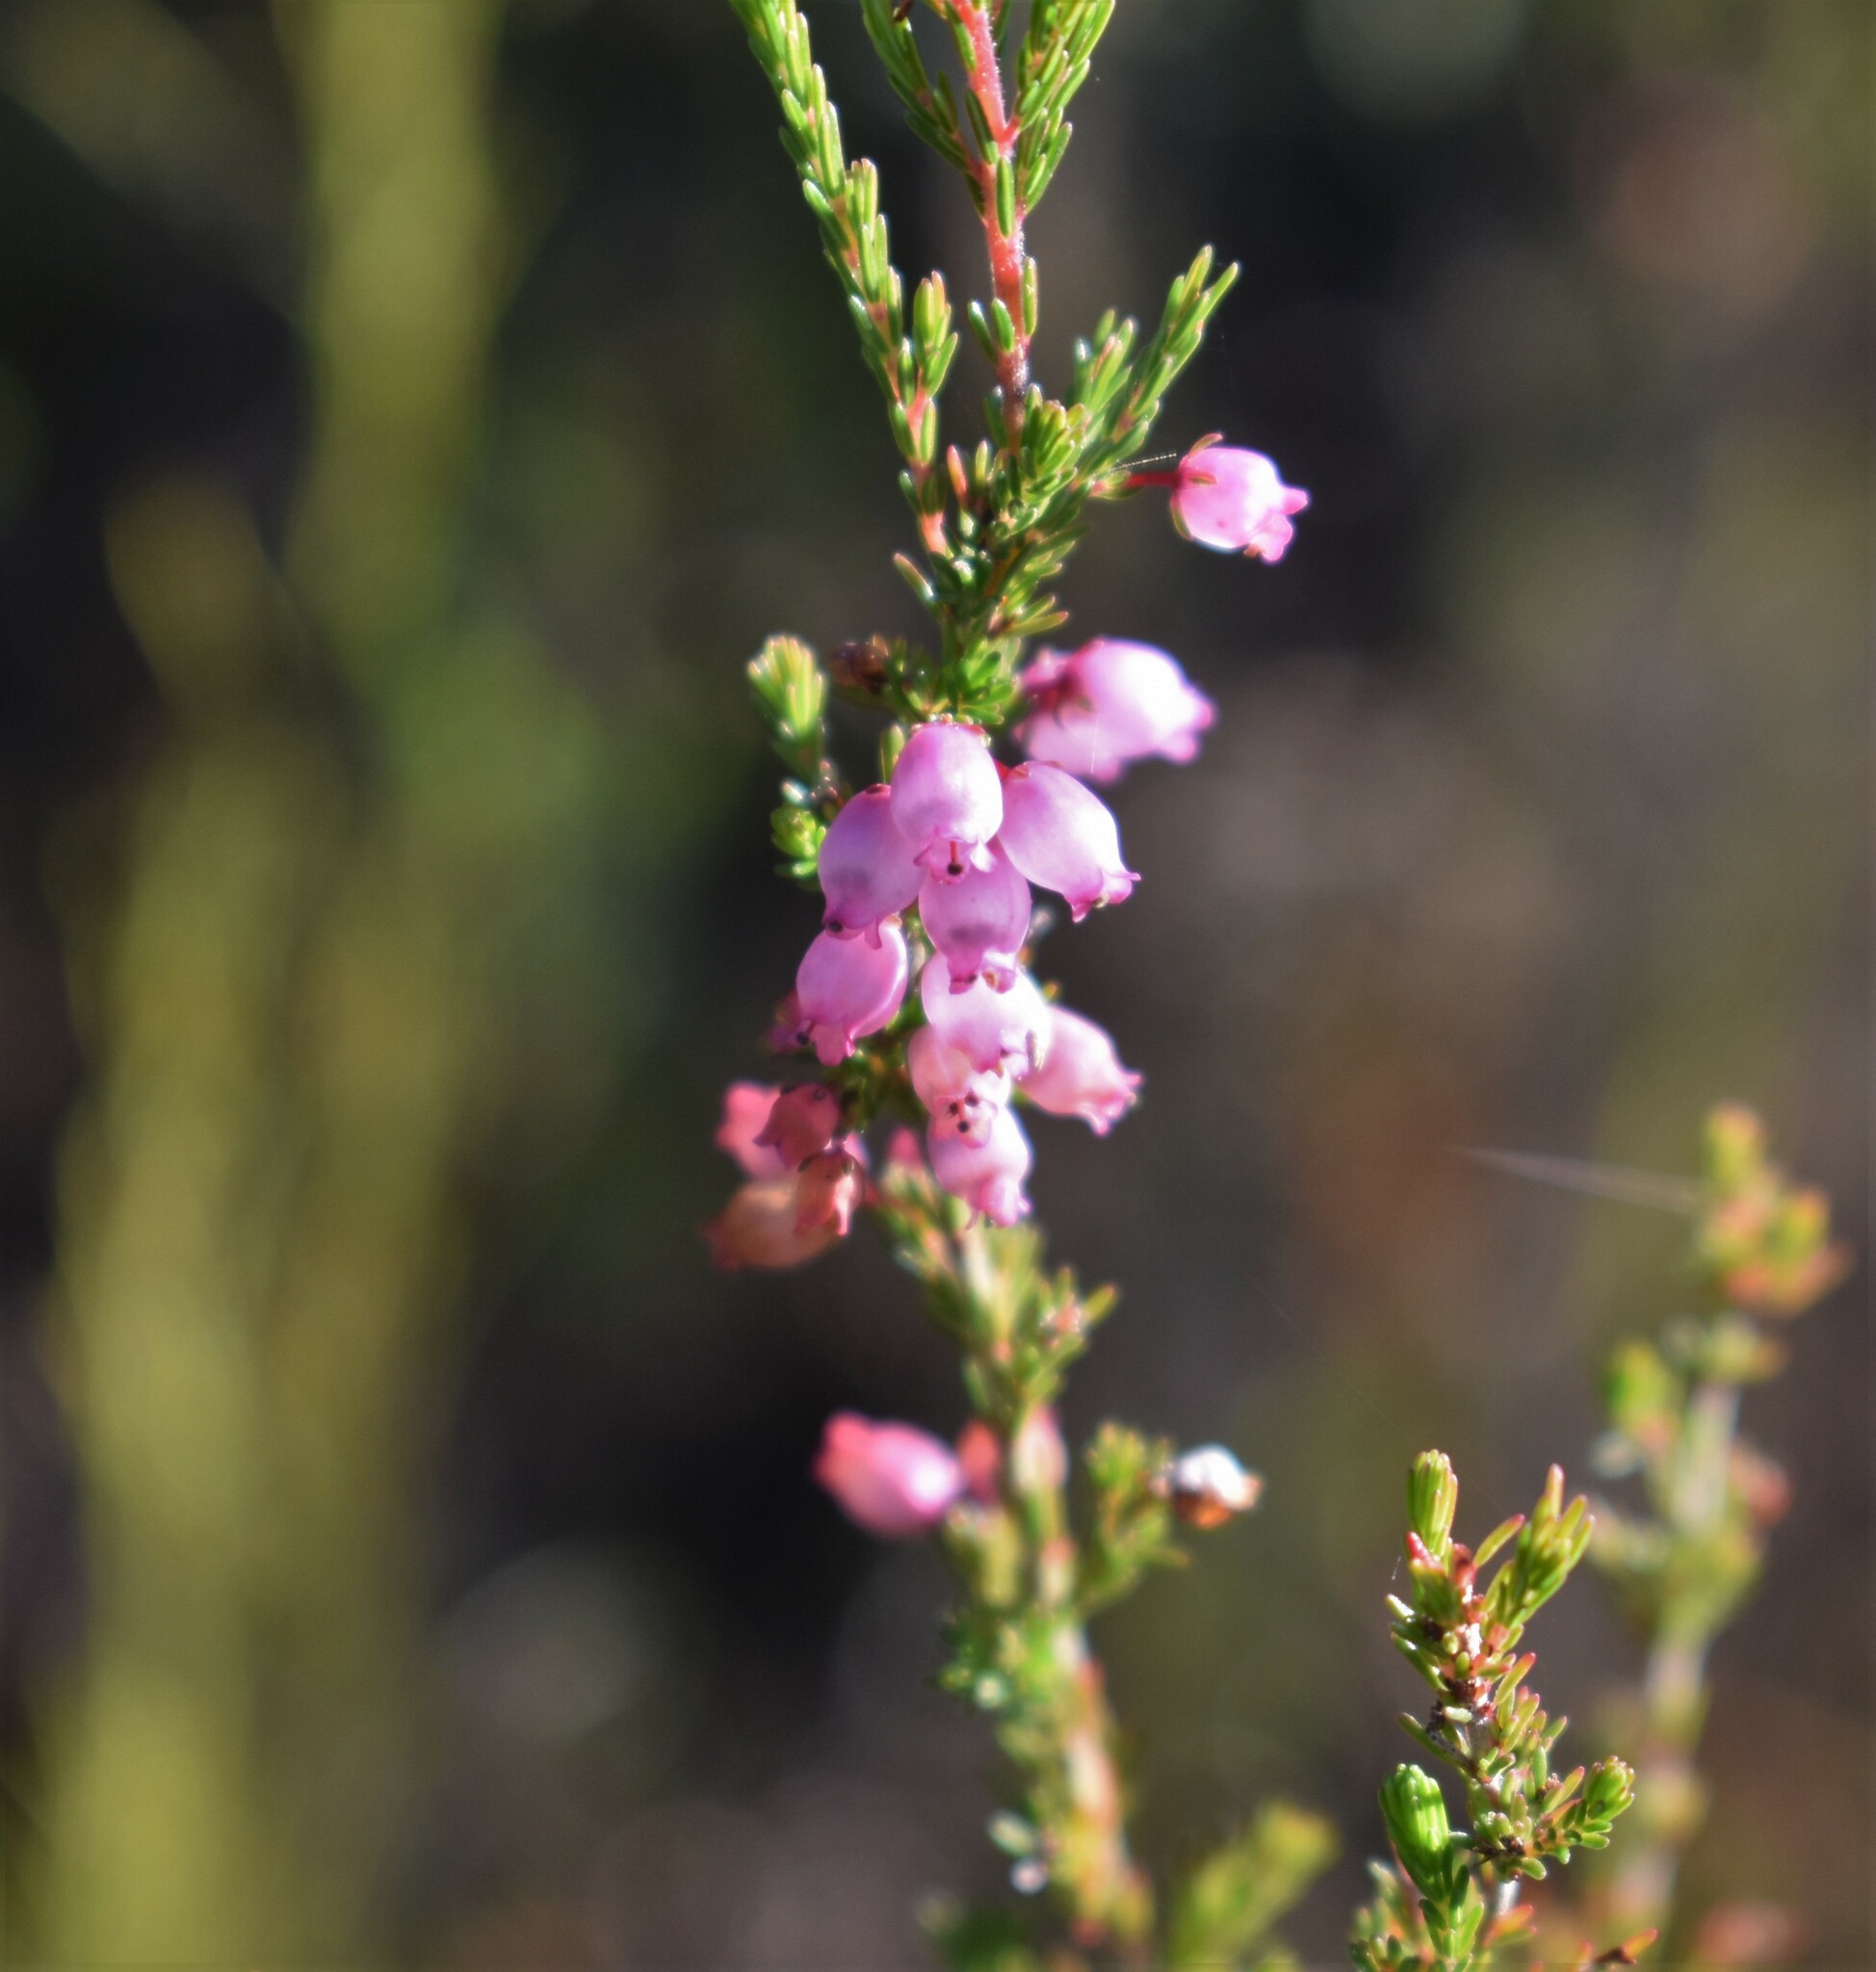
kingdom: Plantae
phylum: Tracheophyta
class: Magnoliopsida
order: Ericales
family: Ericaceae
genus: Erica
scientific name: Erica gracilis
